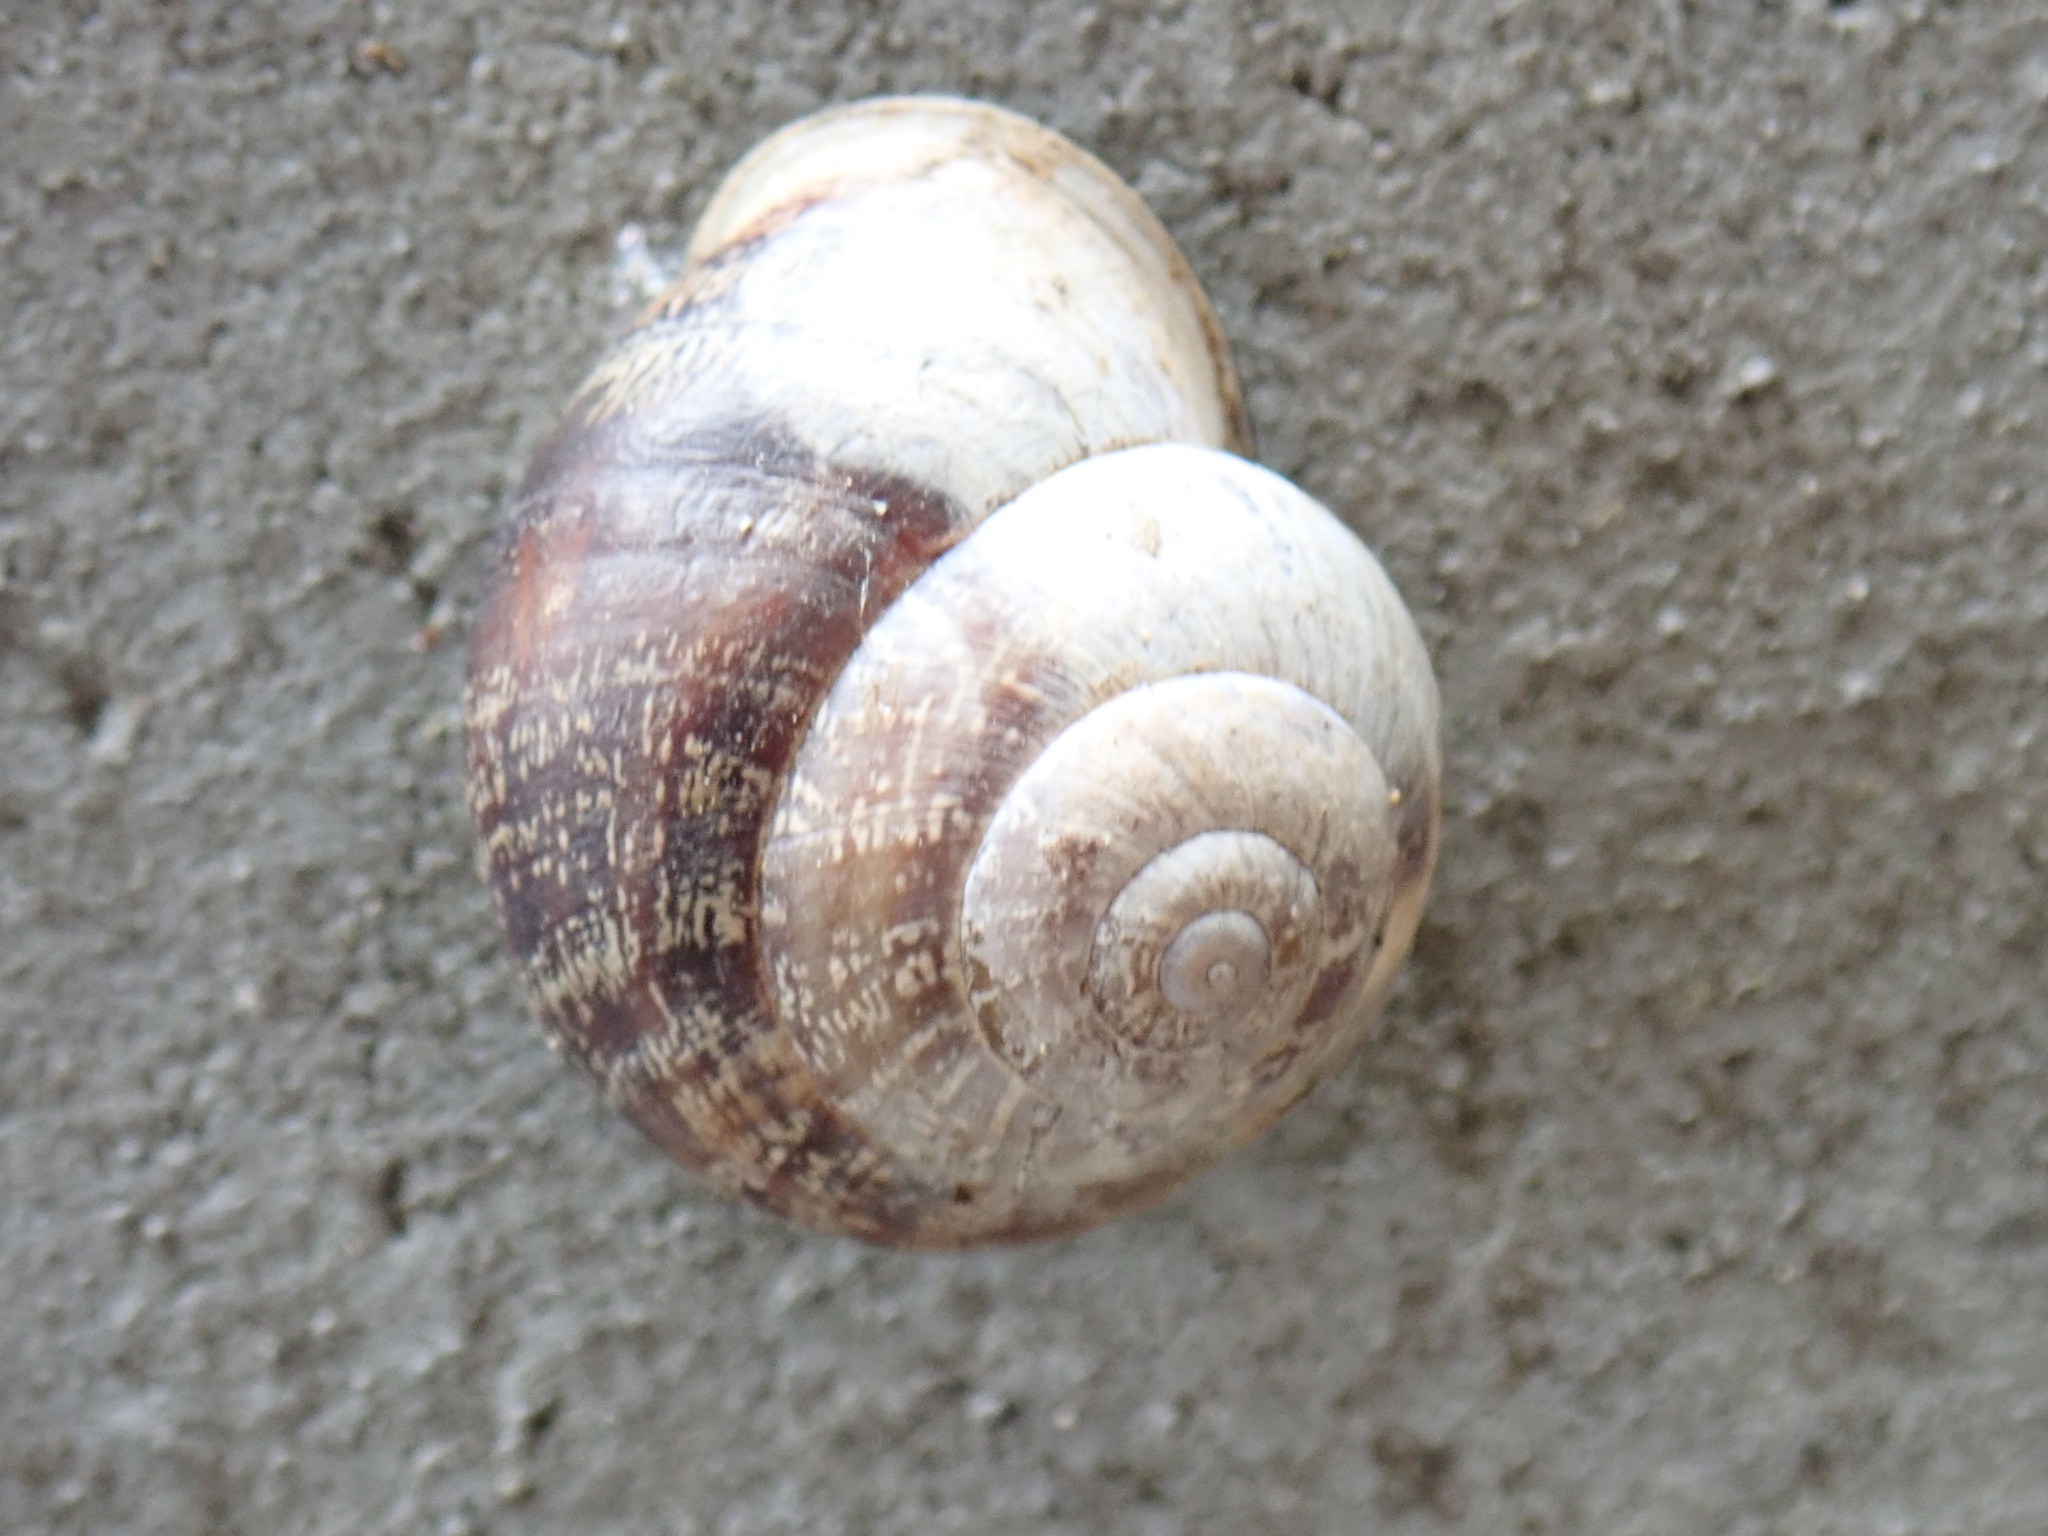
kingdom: Animalia
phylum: Mollusca
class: Gastropoda
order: Stylommatophora
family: Helicidae
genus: Eobania
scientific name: Eobania vermiculata
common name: Chocolateband snail
